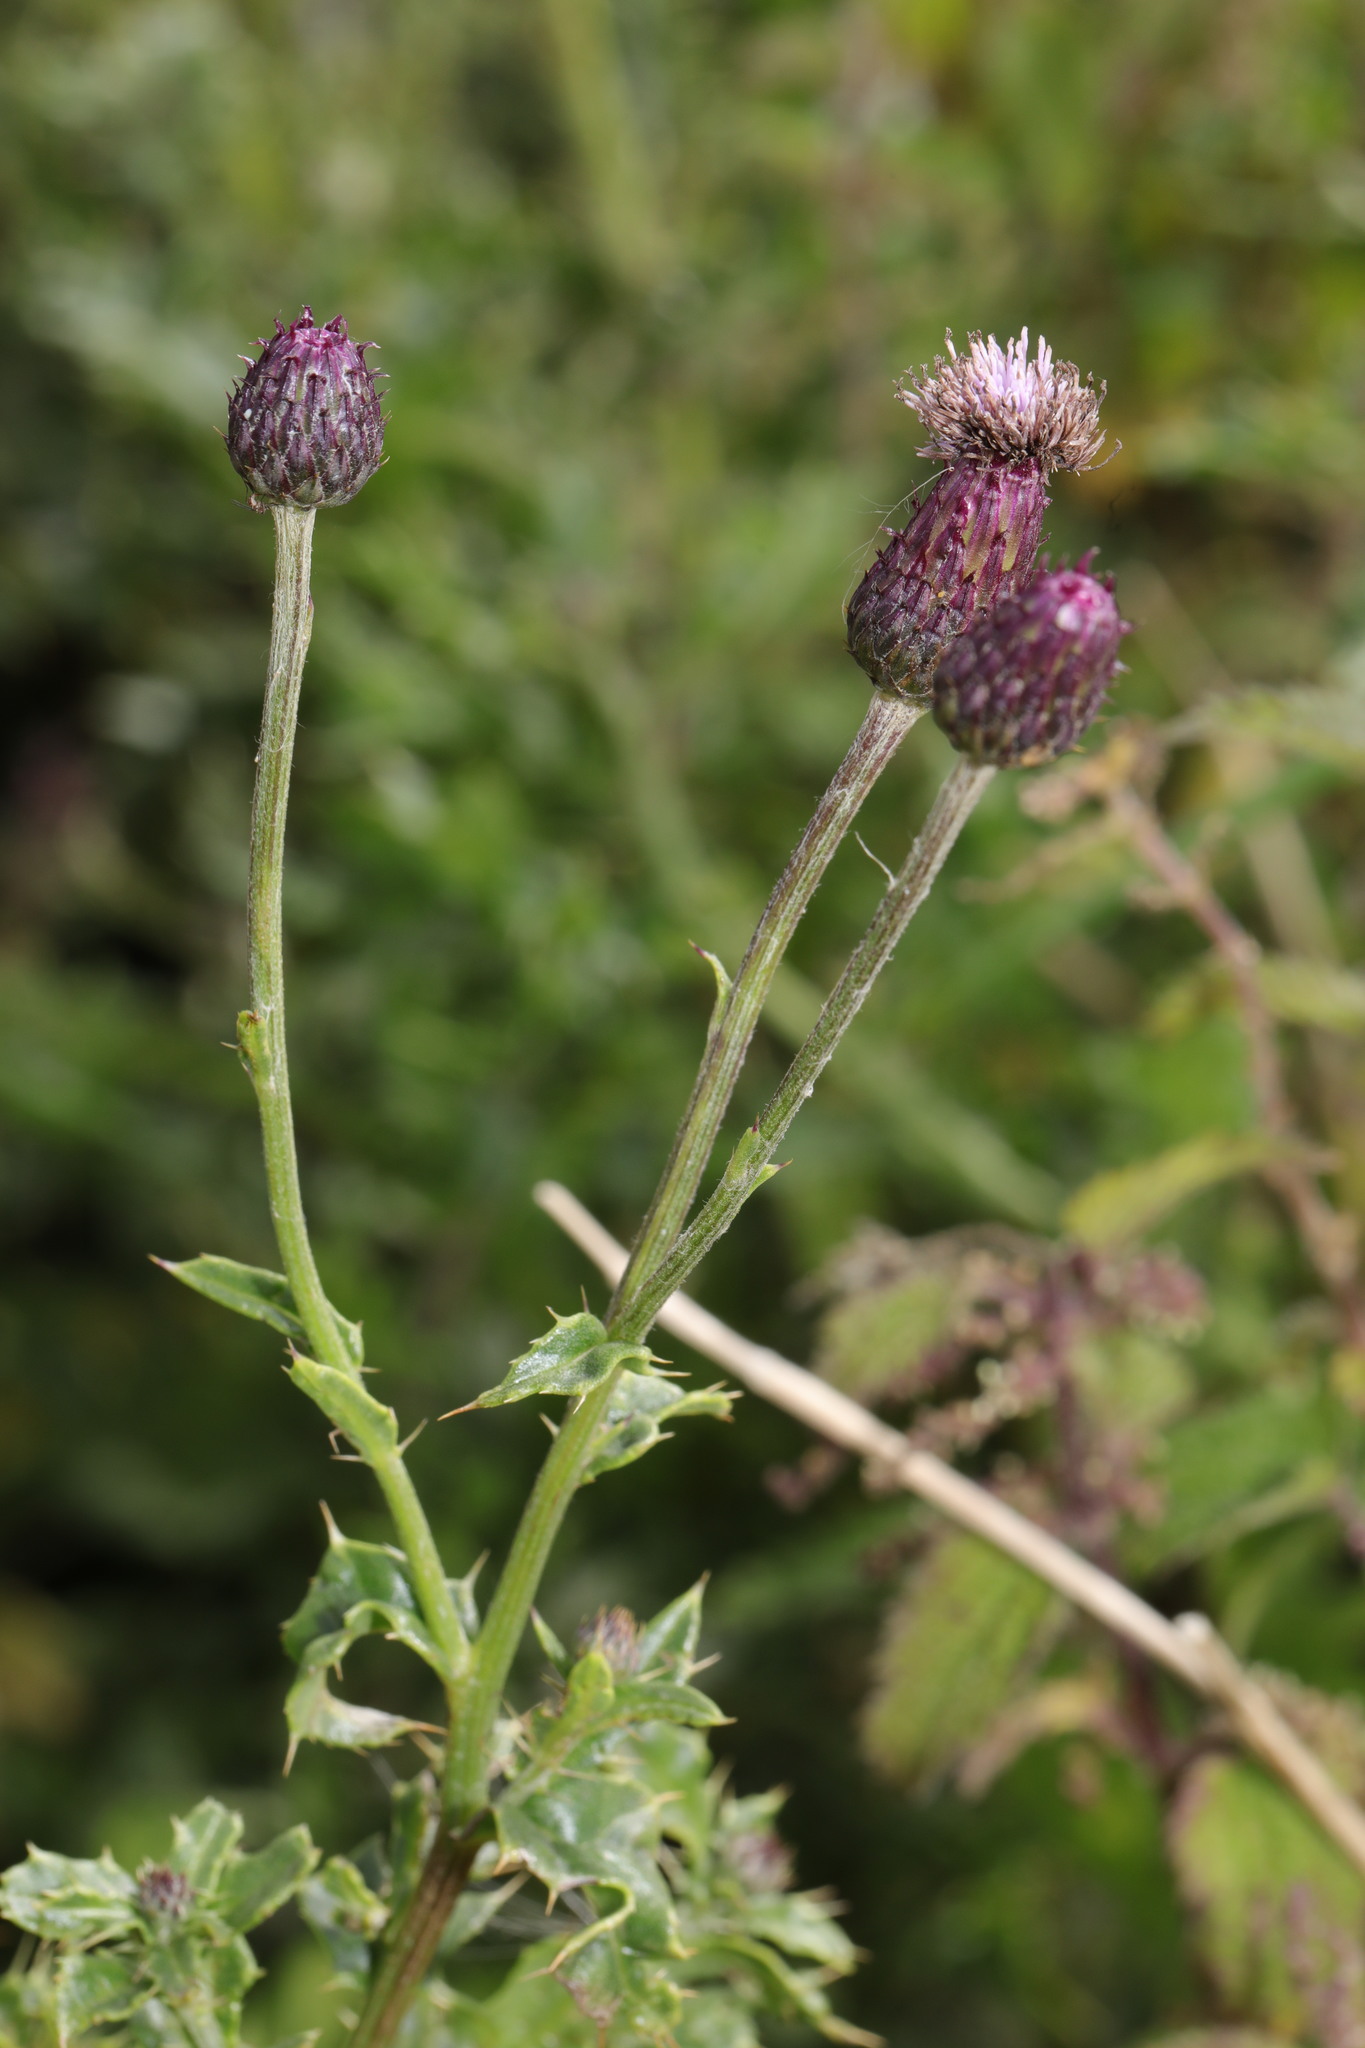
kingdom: Plantae
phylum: Tracheophyta
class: Magnoliopsida
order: Asterales
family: Asteraceae
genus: Cirsium
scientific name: Cirsium arvense
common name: Creeping thistle
